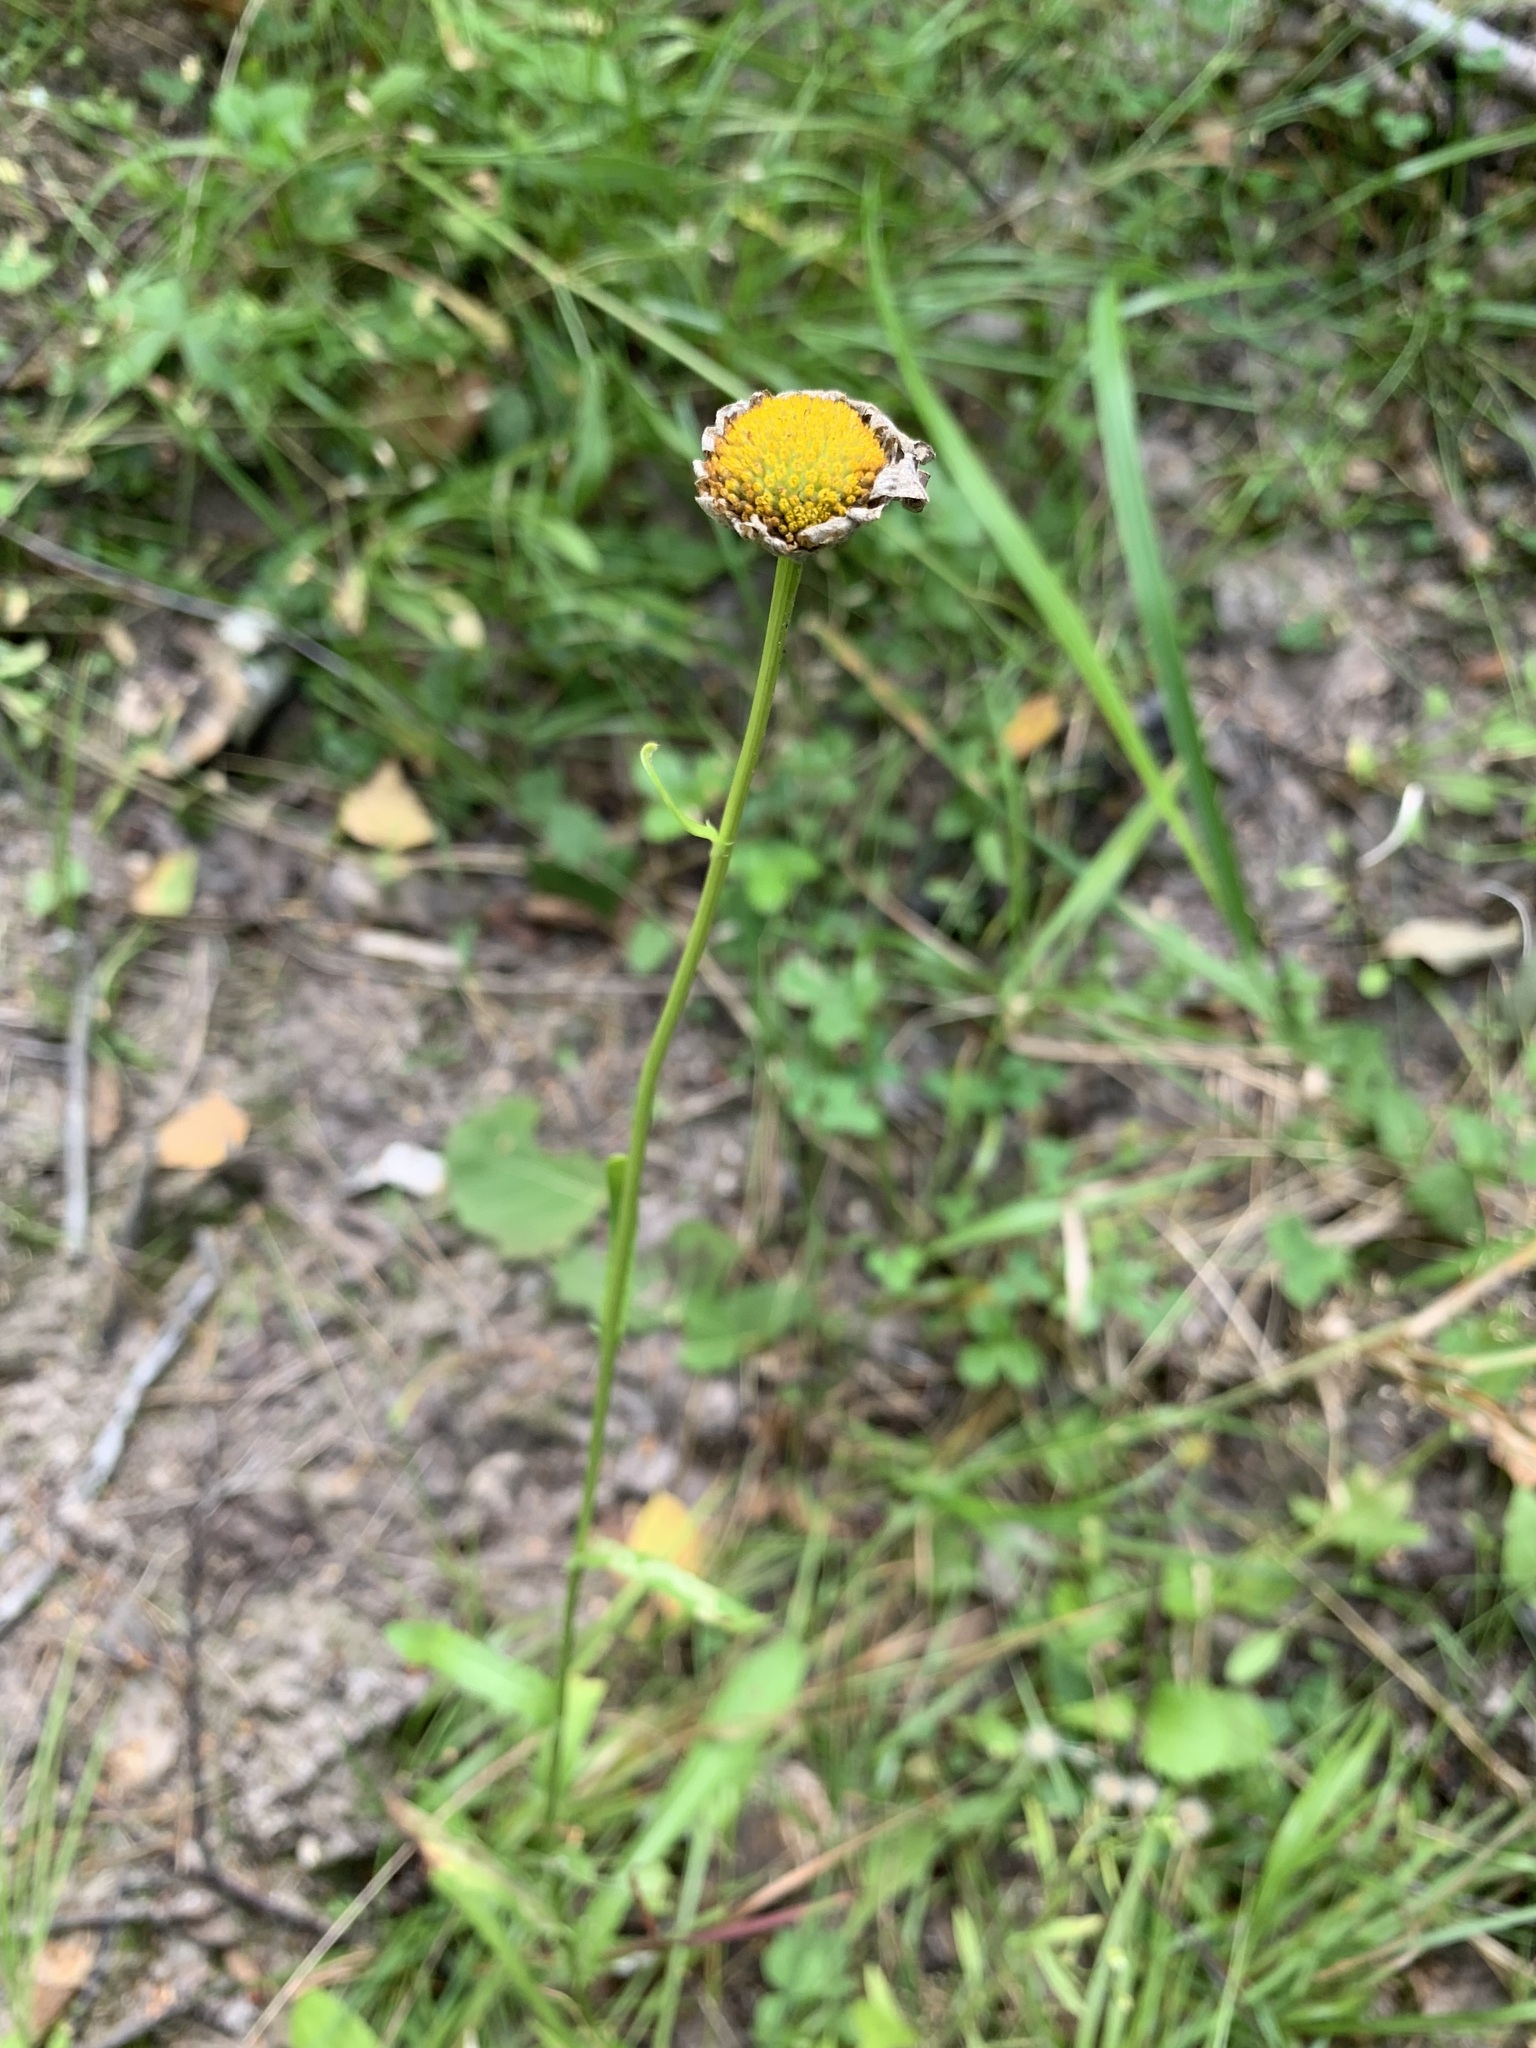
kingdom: Plantae
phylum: Tracheophyta
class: Magnoliopsida
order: Asterales
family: Asteraceae
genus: Leucanthemum
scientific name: Leucanthemum ircutianum
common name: Daisy
